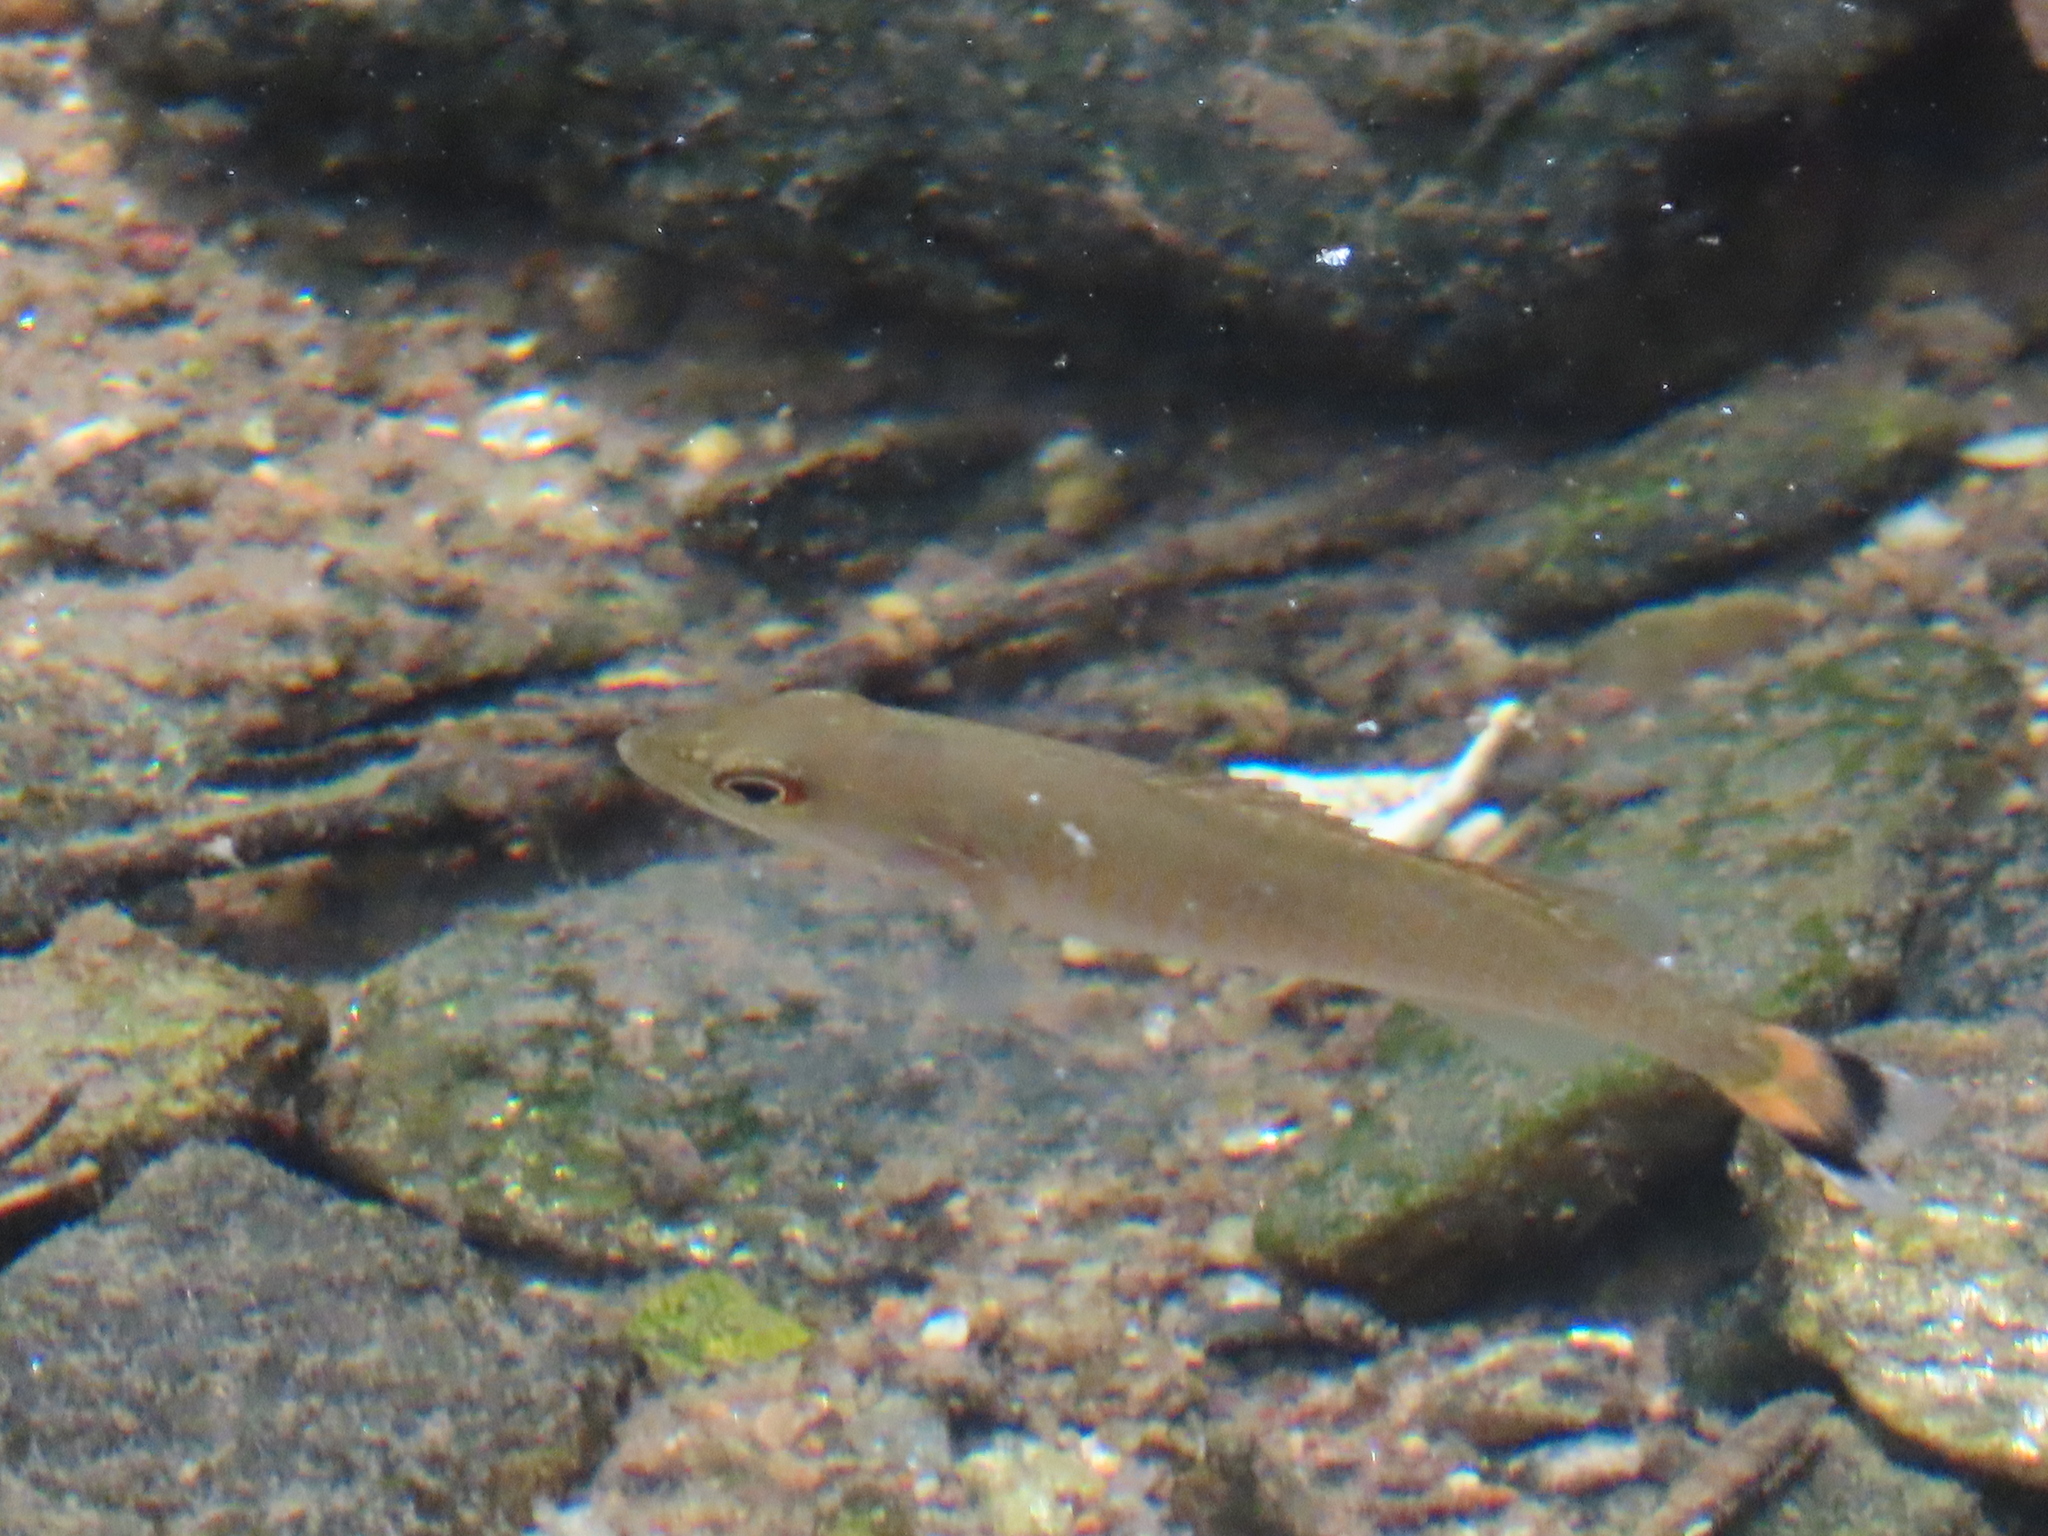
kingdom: Animalia
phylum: Chordata
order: Perciformes
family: Centrarchidae
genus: Micropterus
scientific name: Micropterus dolomieu
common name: Smallmouth bass
